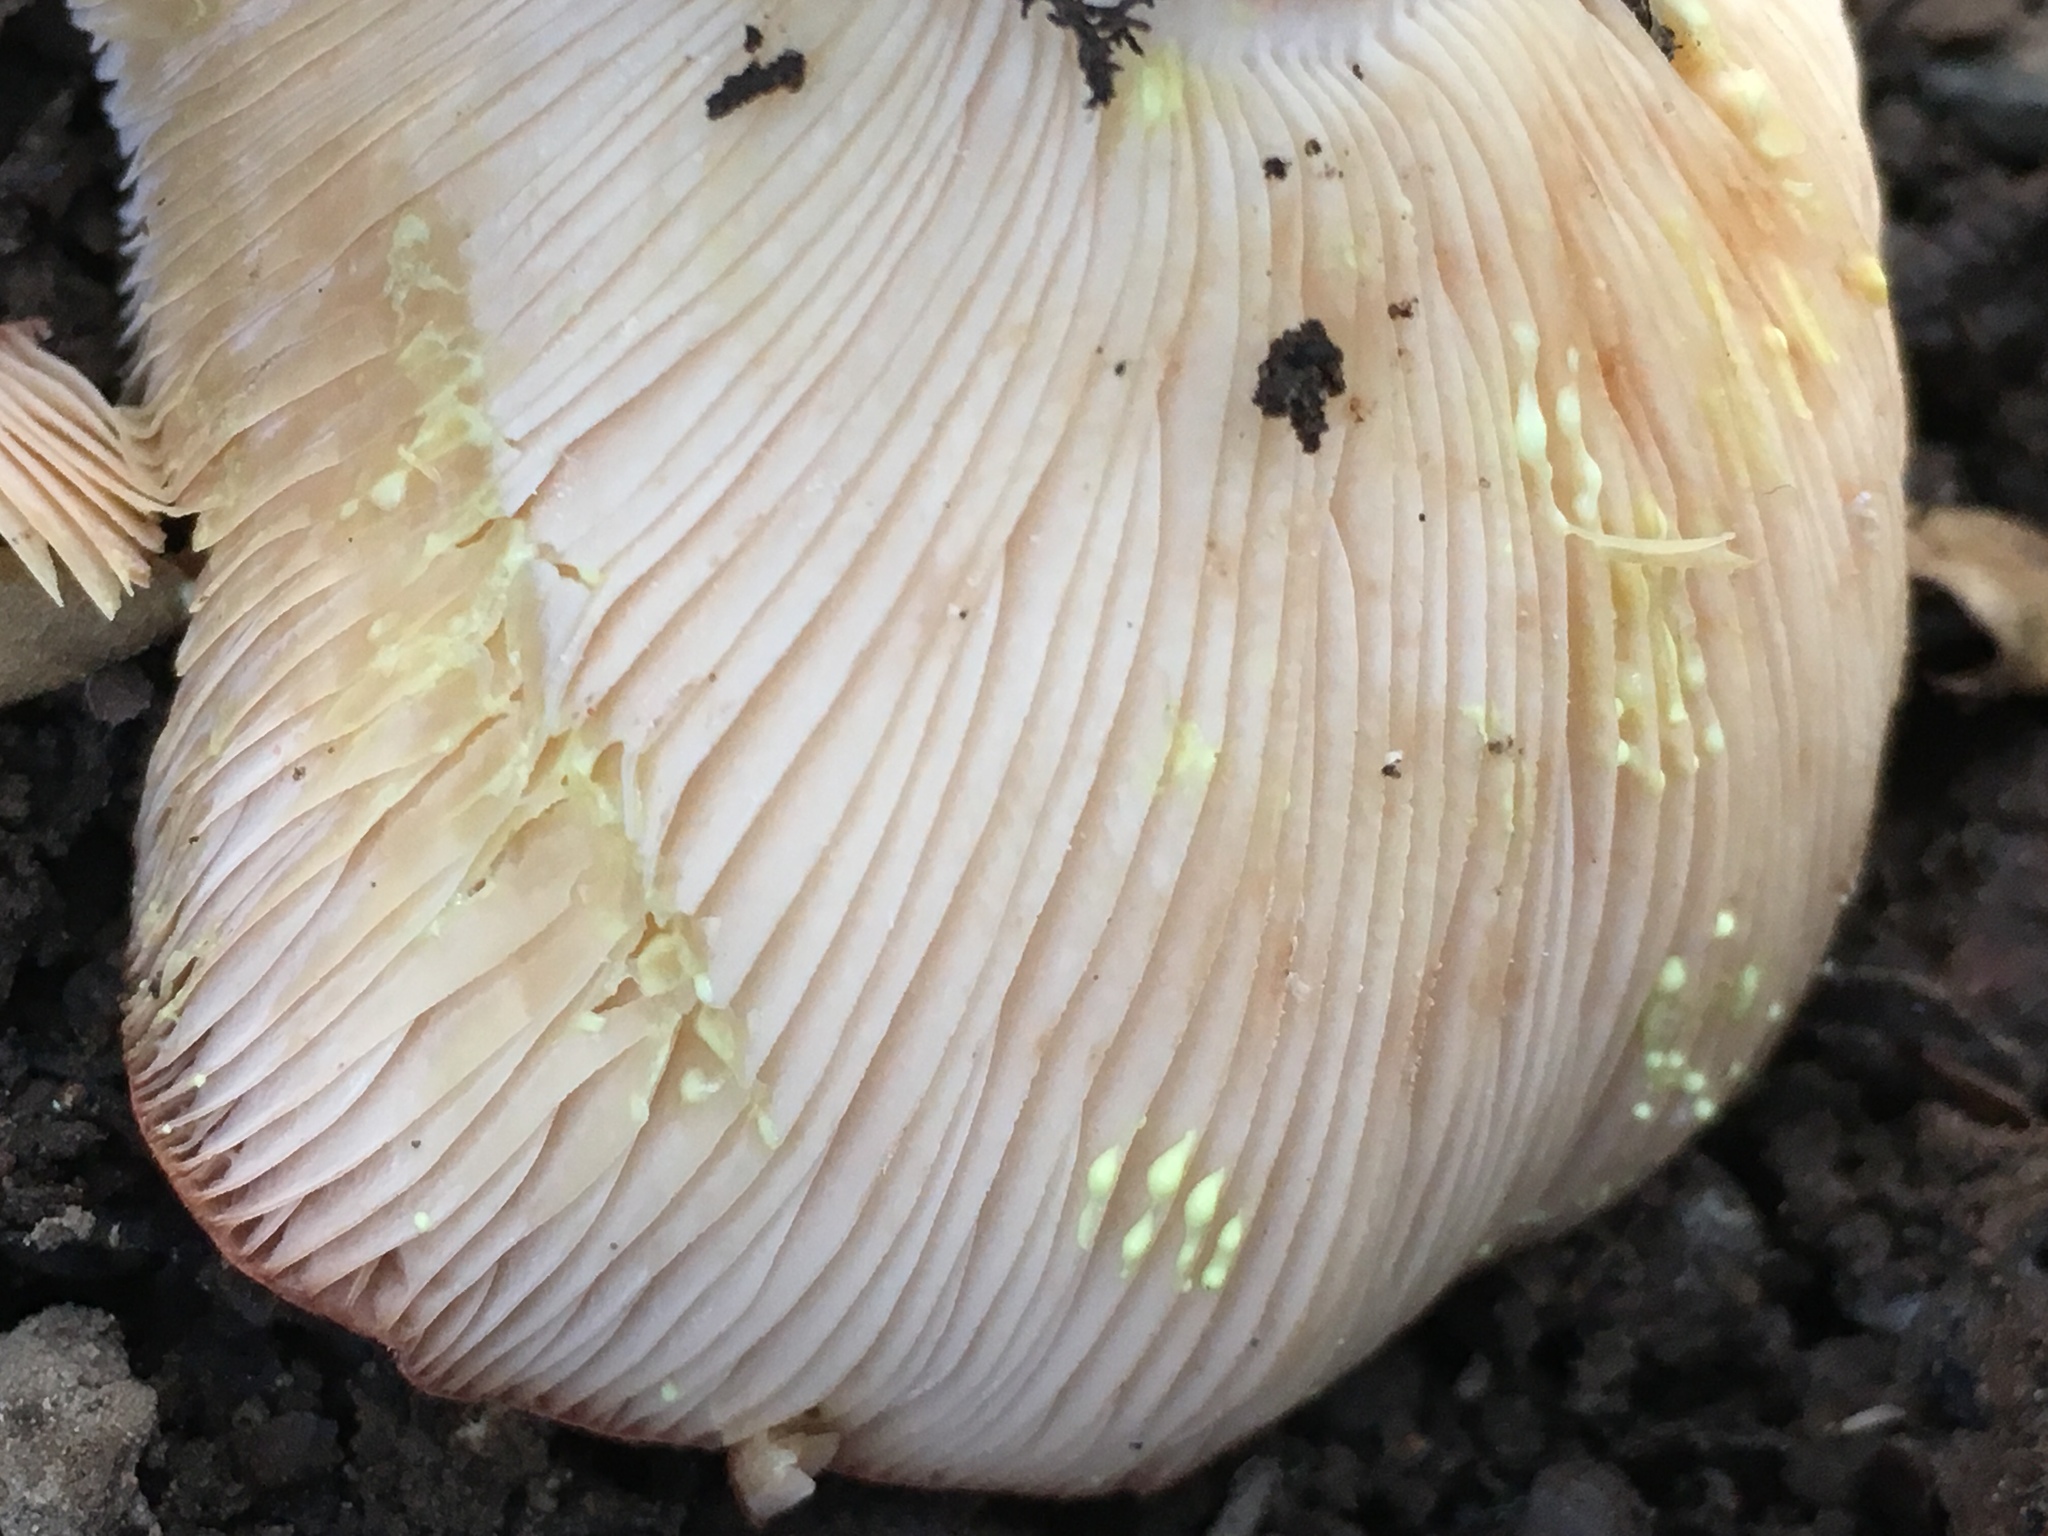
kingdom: Fungi
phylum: Basidiomycota
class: Agaricomycetes
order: Russulales
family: Russulaceae
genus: Lactarius
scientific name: Lactarius xanthogalactus
